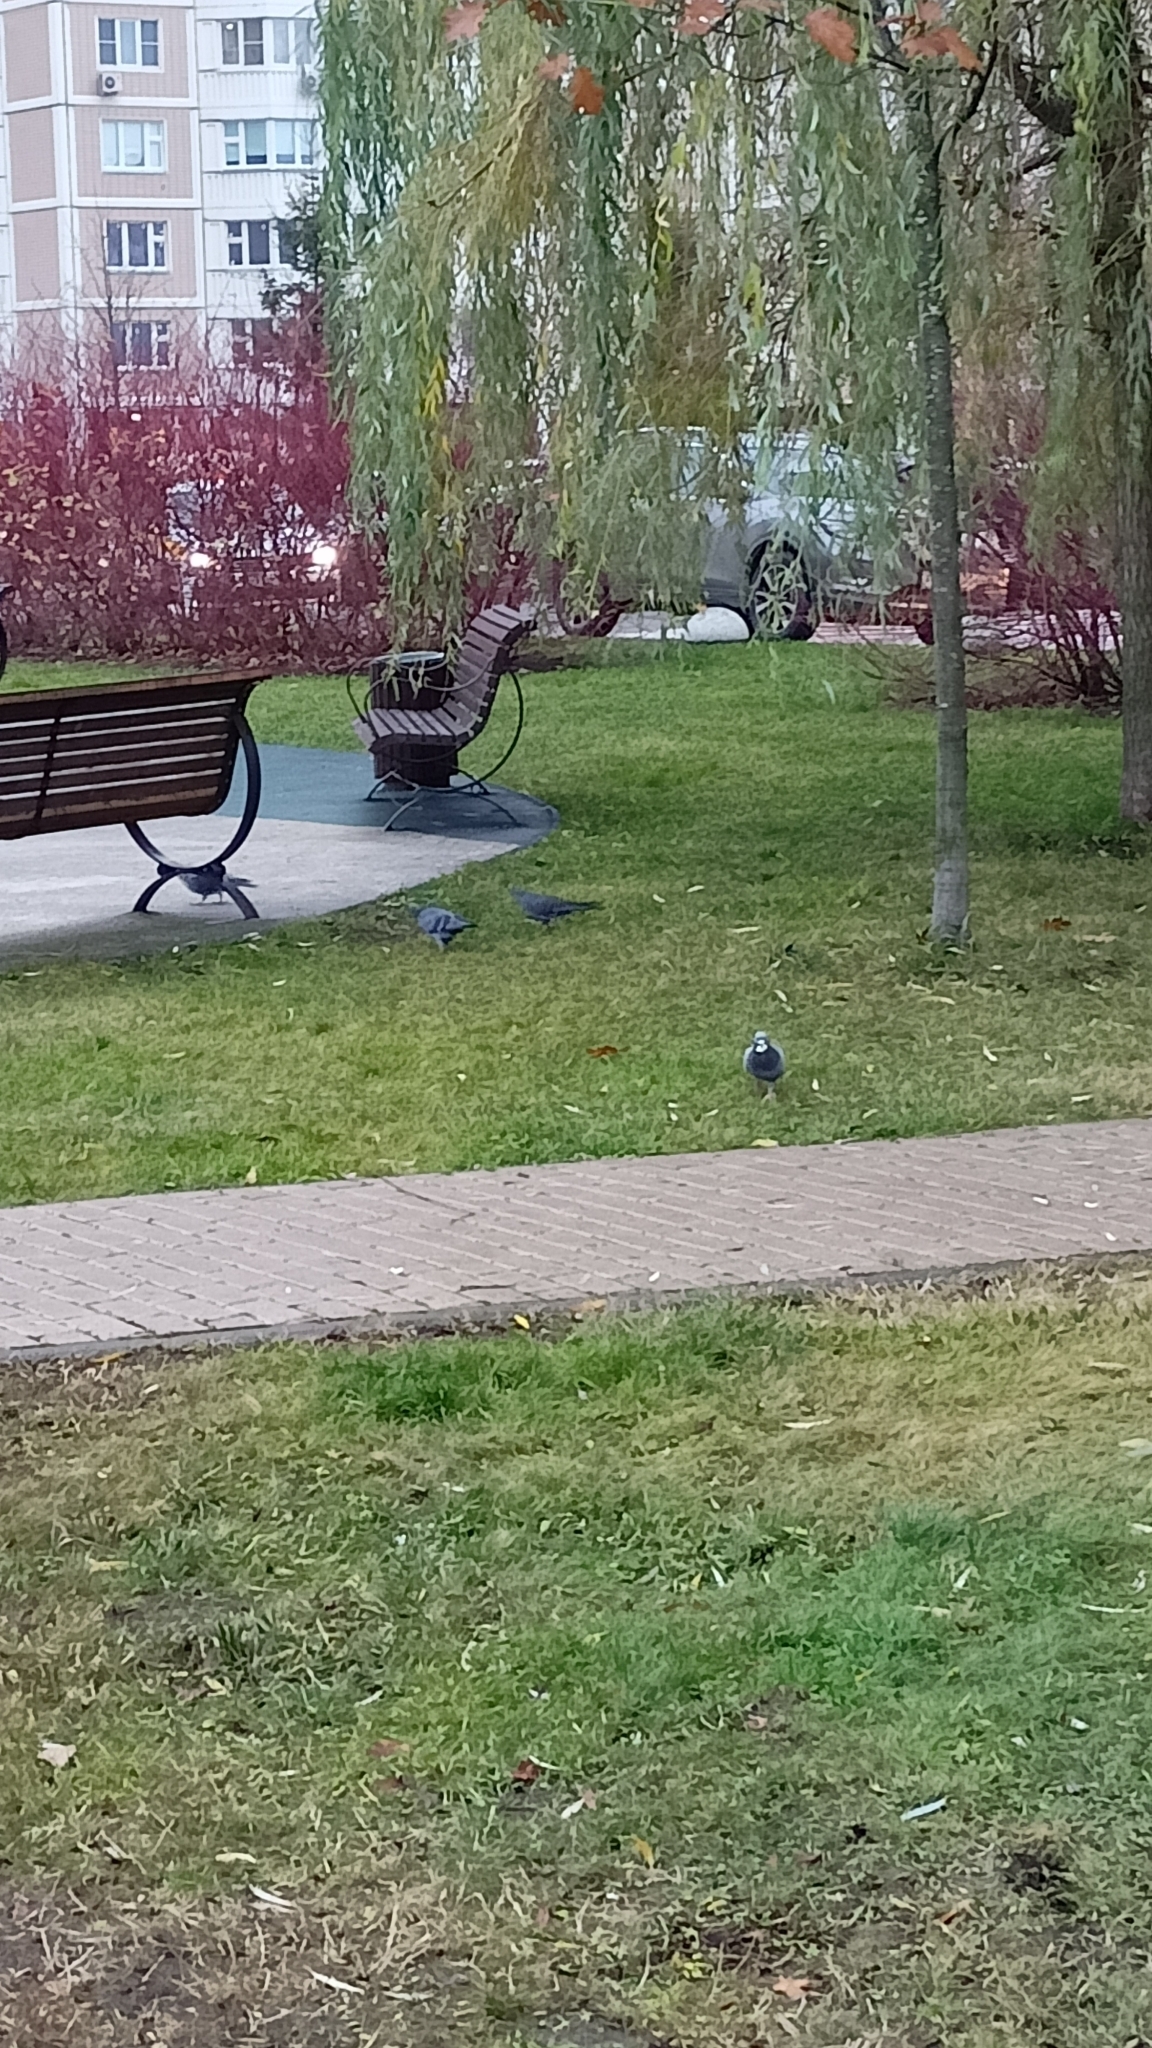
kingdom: Animalia
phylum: Chordata
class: Aves
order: Columbiformes
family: Columbidae
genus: Columba
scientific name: Columba livia
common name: Rock pigeon
